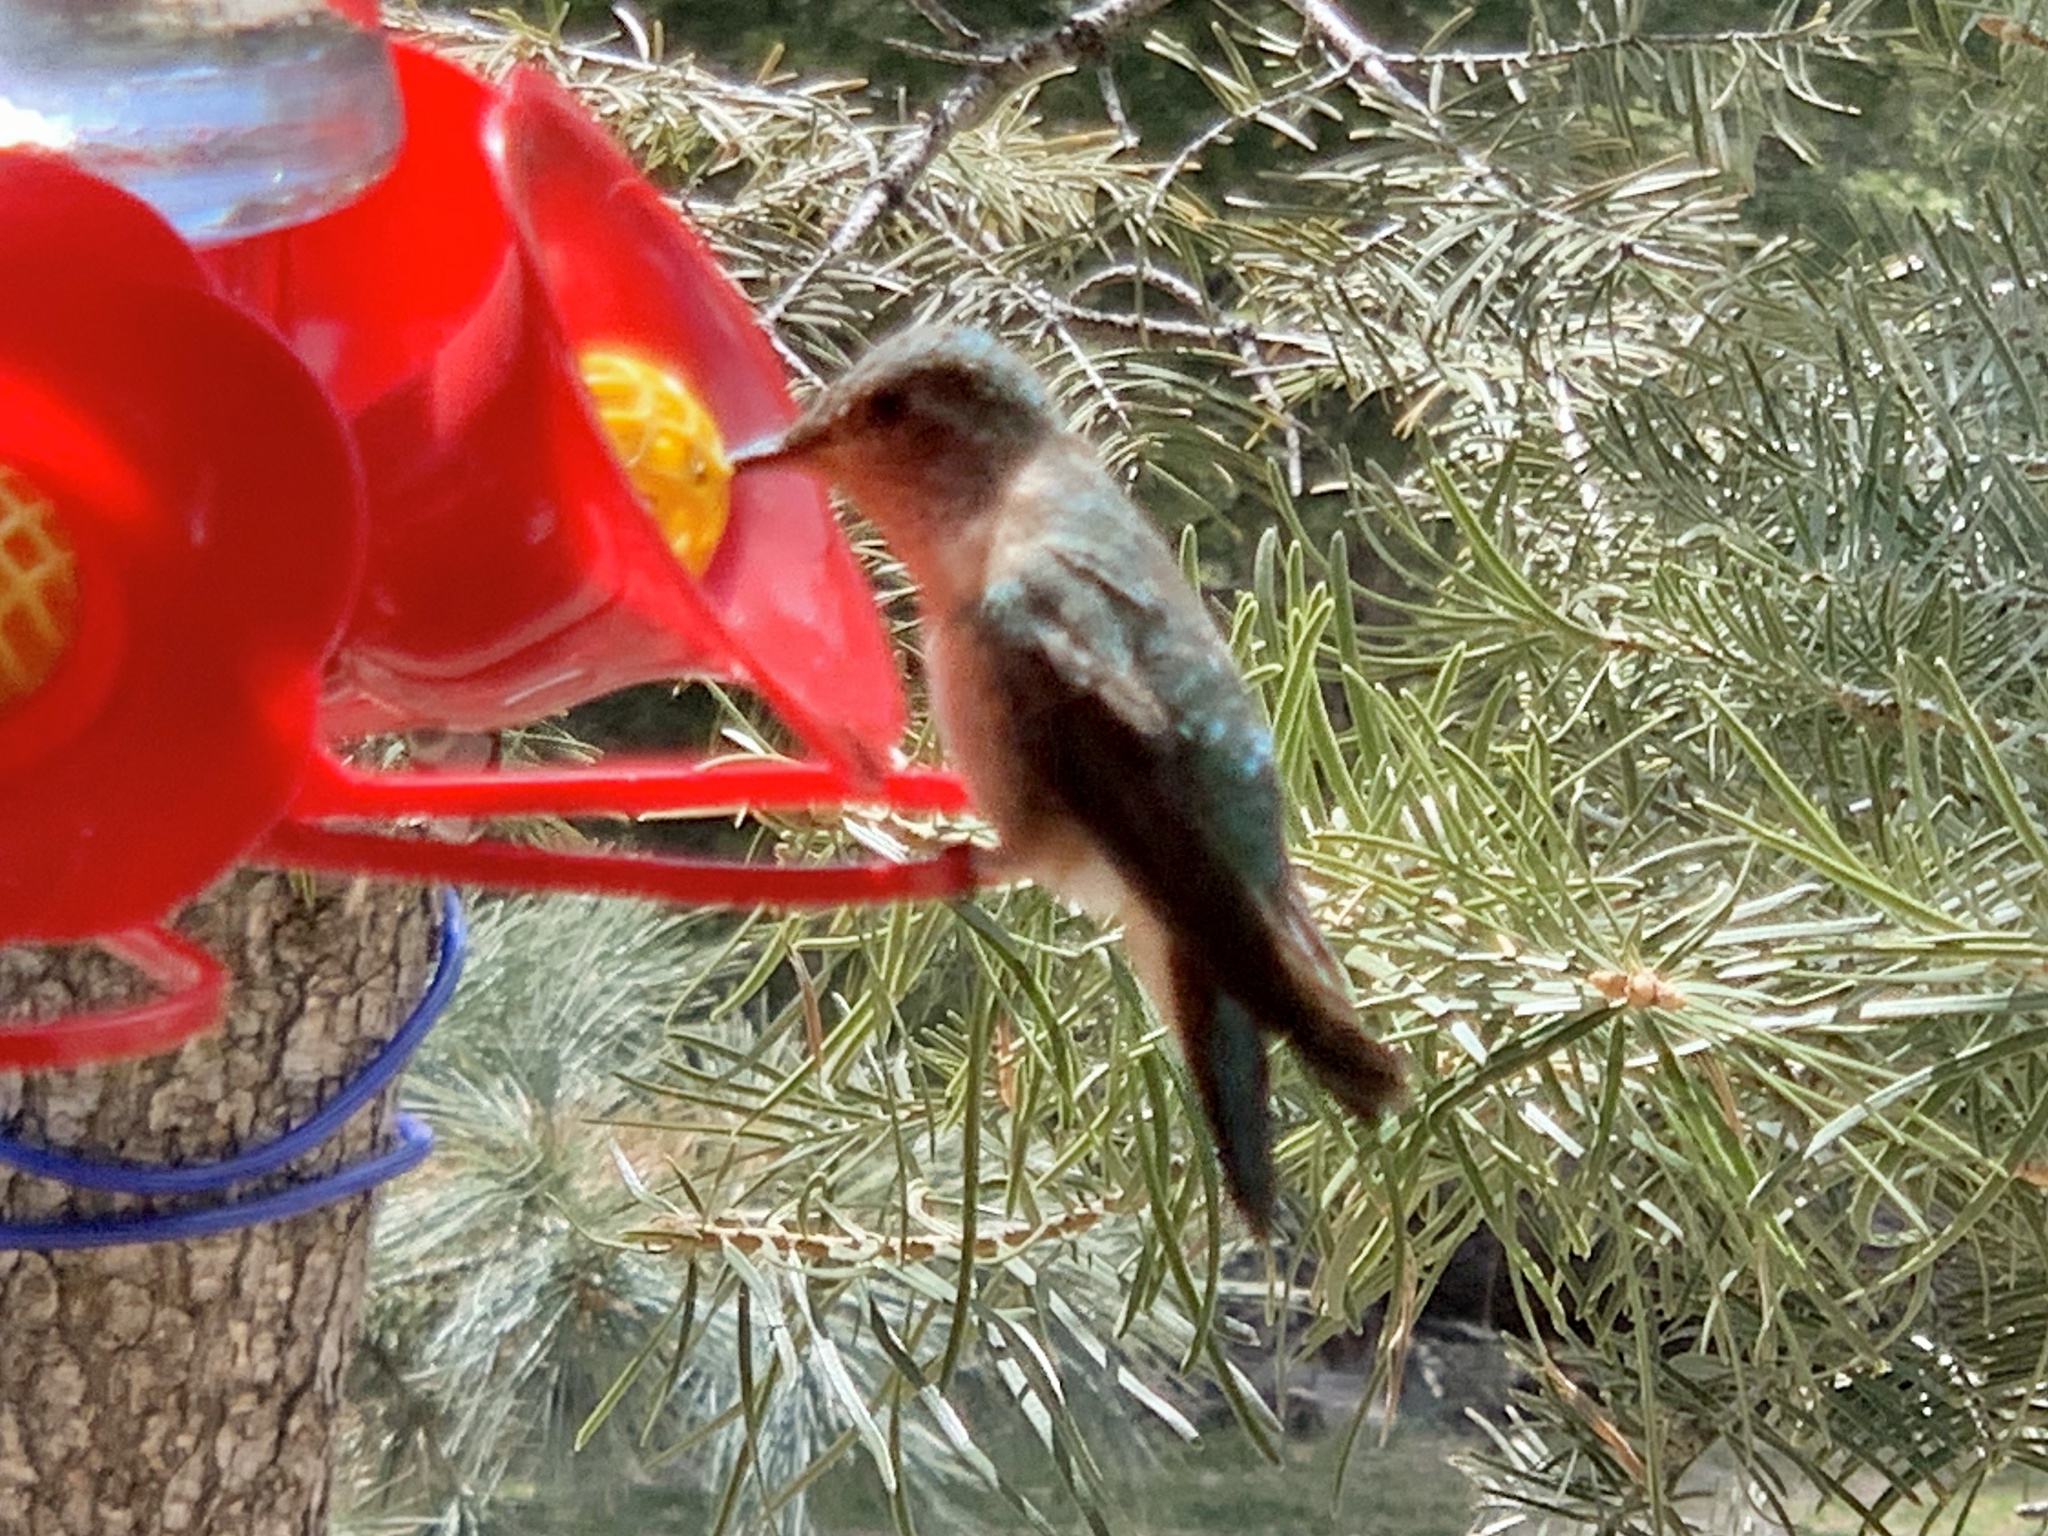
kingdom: Animalia
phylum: Chordata
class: Aves
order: Apodiformes
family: Trochilidae
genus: Selasphorus
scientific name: Selasphorus platycercus
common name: Broad-tailed hummingbird
